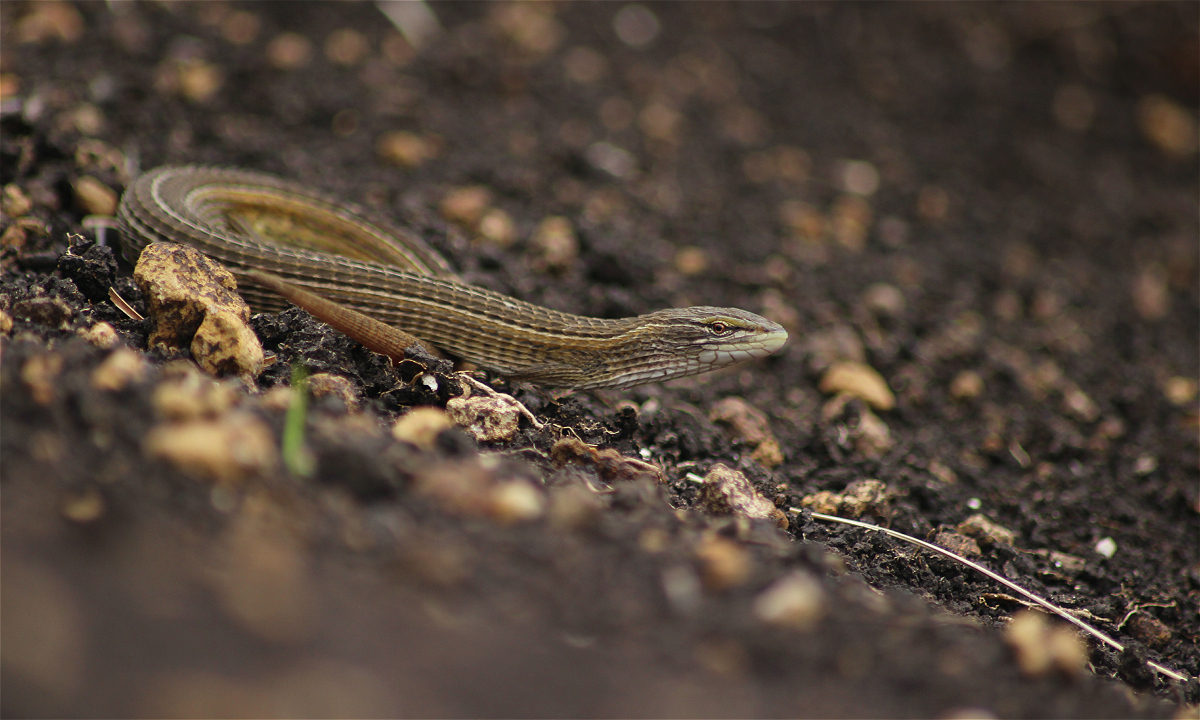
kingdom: Animalia
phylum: Chordata
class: Squamata
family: Cordylidae
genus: Chamaesaura
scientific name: Chamaesaura aenea
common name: Coppery grass lizard
